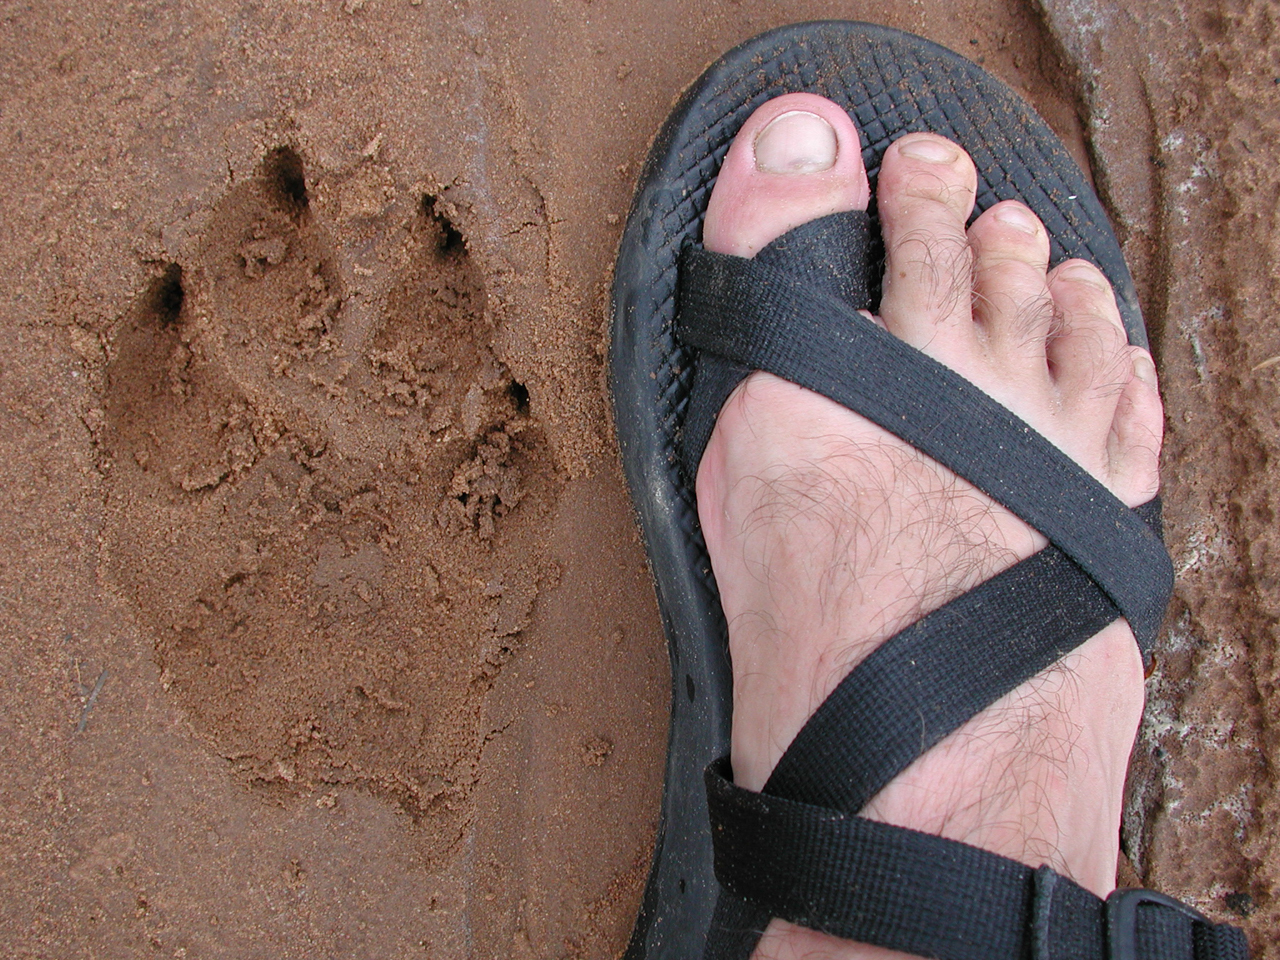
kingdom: Animalia
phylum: Chordata
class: Mammalia
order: Carnivora
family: Hyaenidae
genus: Crocuta
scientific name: Crocuta crocuta
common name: Spotted hyaena
